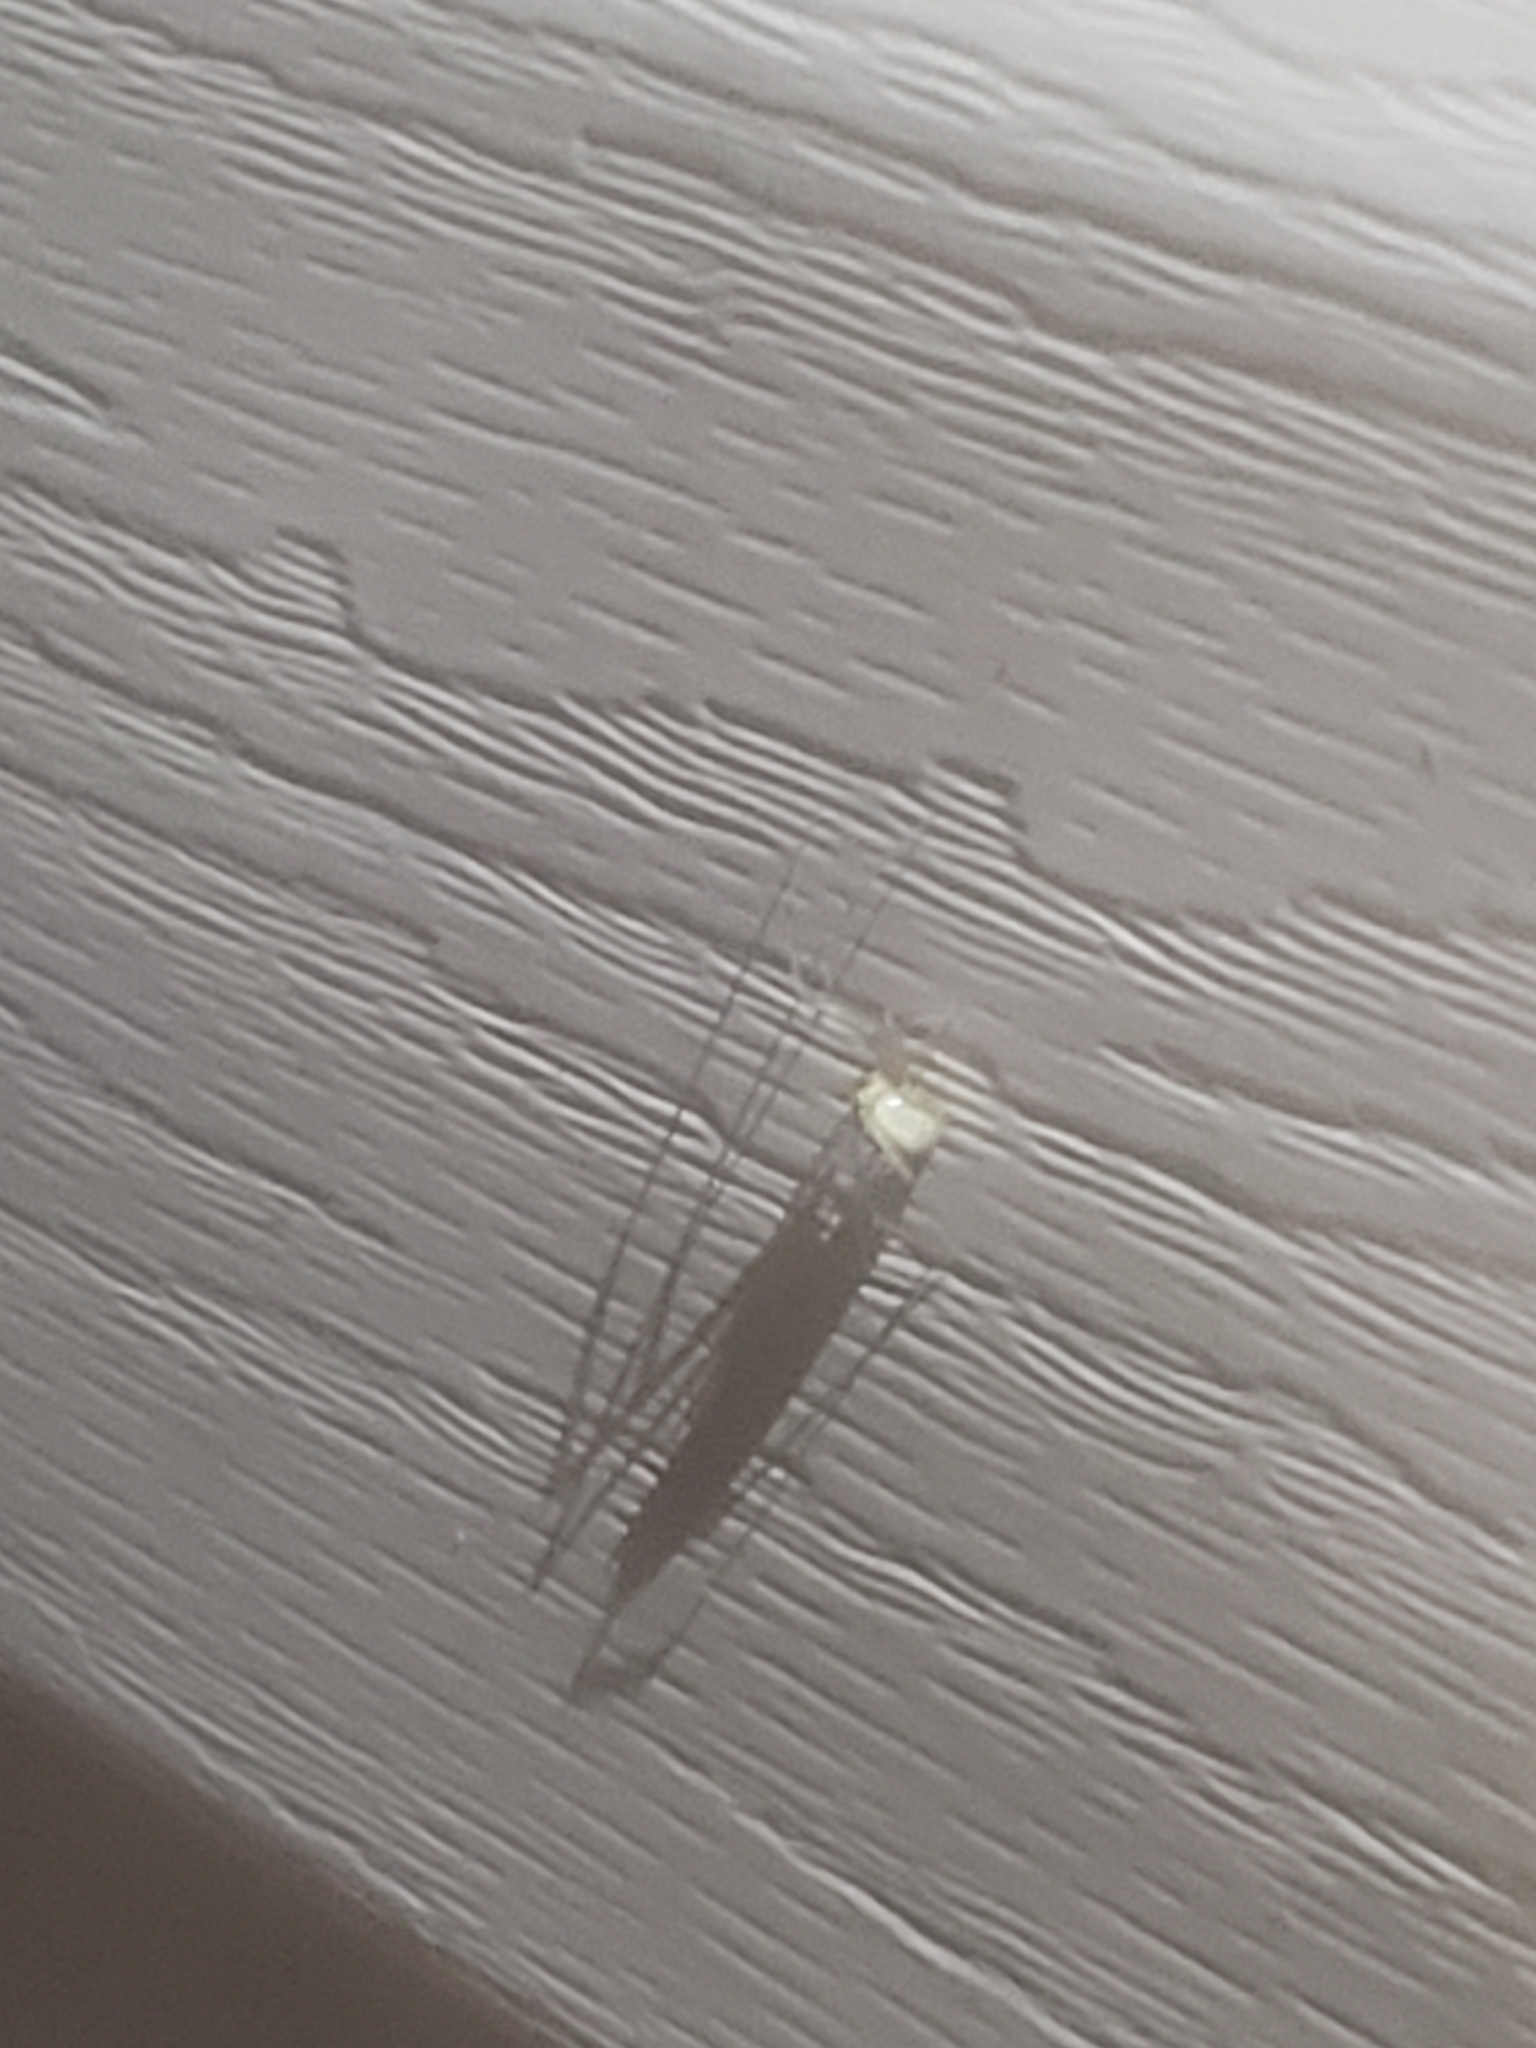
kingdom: Animalia
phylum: Arthropoda
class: Arachnida
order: Araneae
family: Theridiidae
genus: Enoplognatha
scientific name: Enoplognatha ovata
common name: Common candy-striped spider
